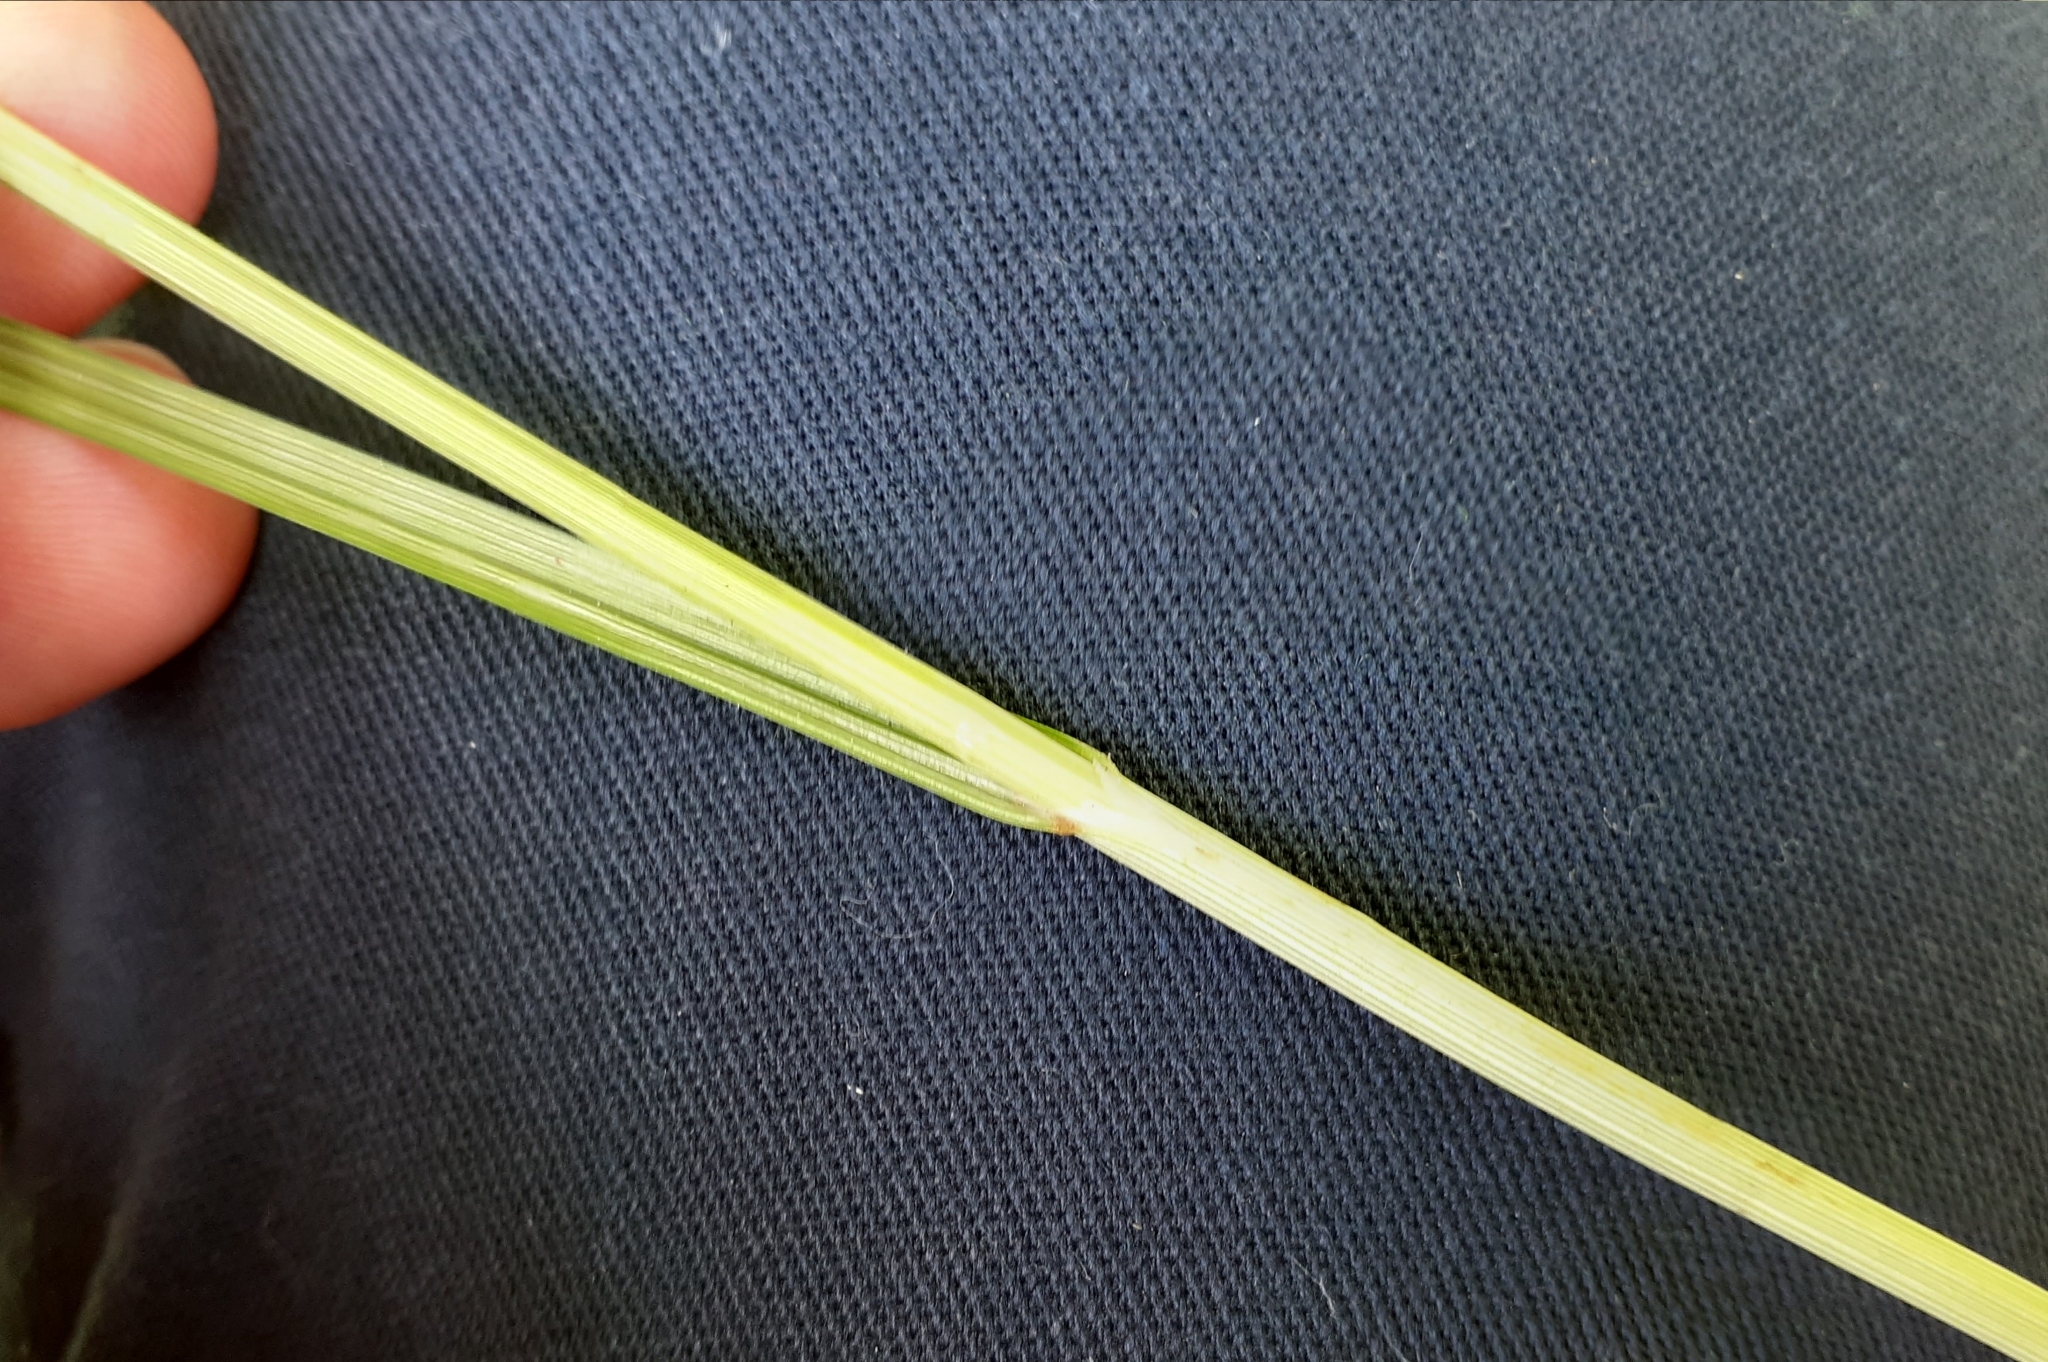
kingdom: Plantae
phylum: Tracheophyta
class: Liliopsida
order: Poales
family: Cyperaceae
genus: Carex
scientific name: Carex merritt-fernaldii
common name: Fernald's oval sedge
